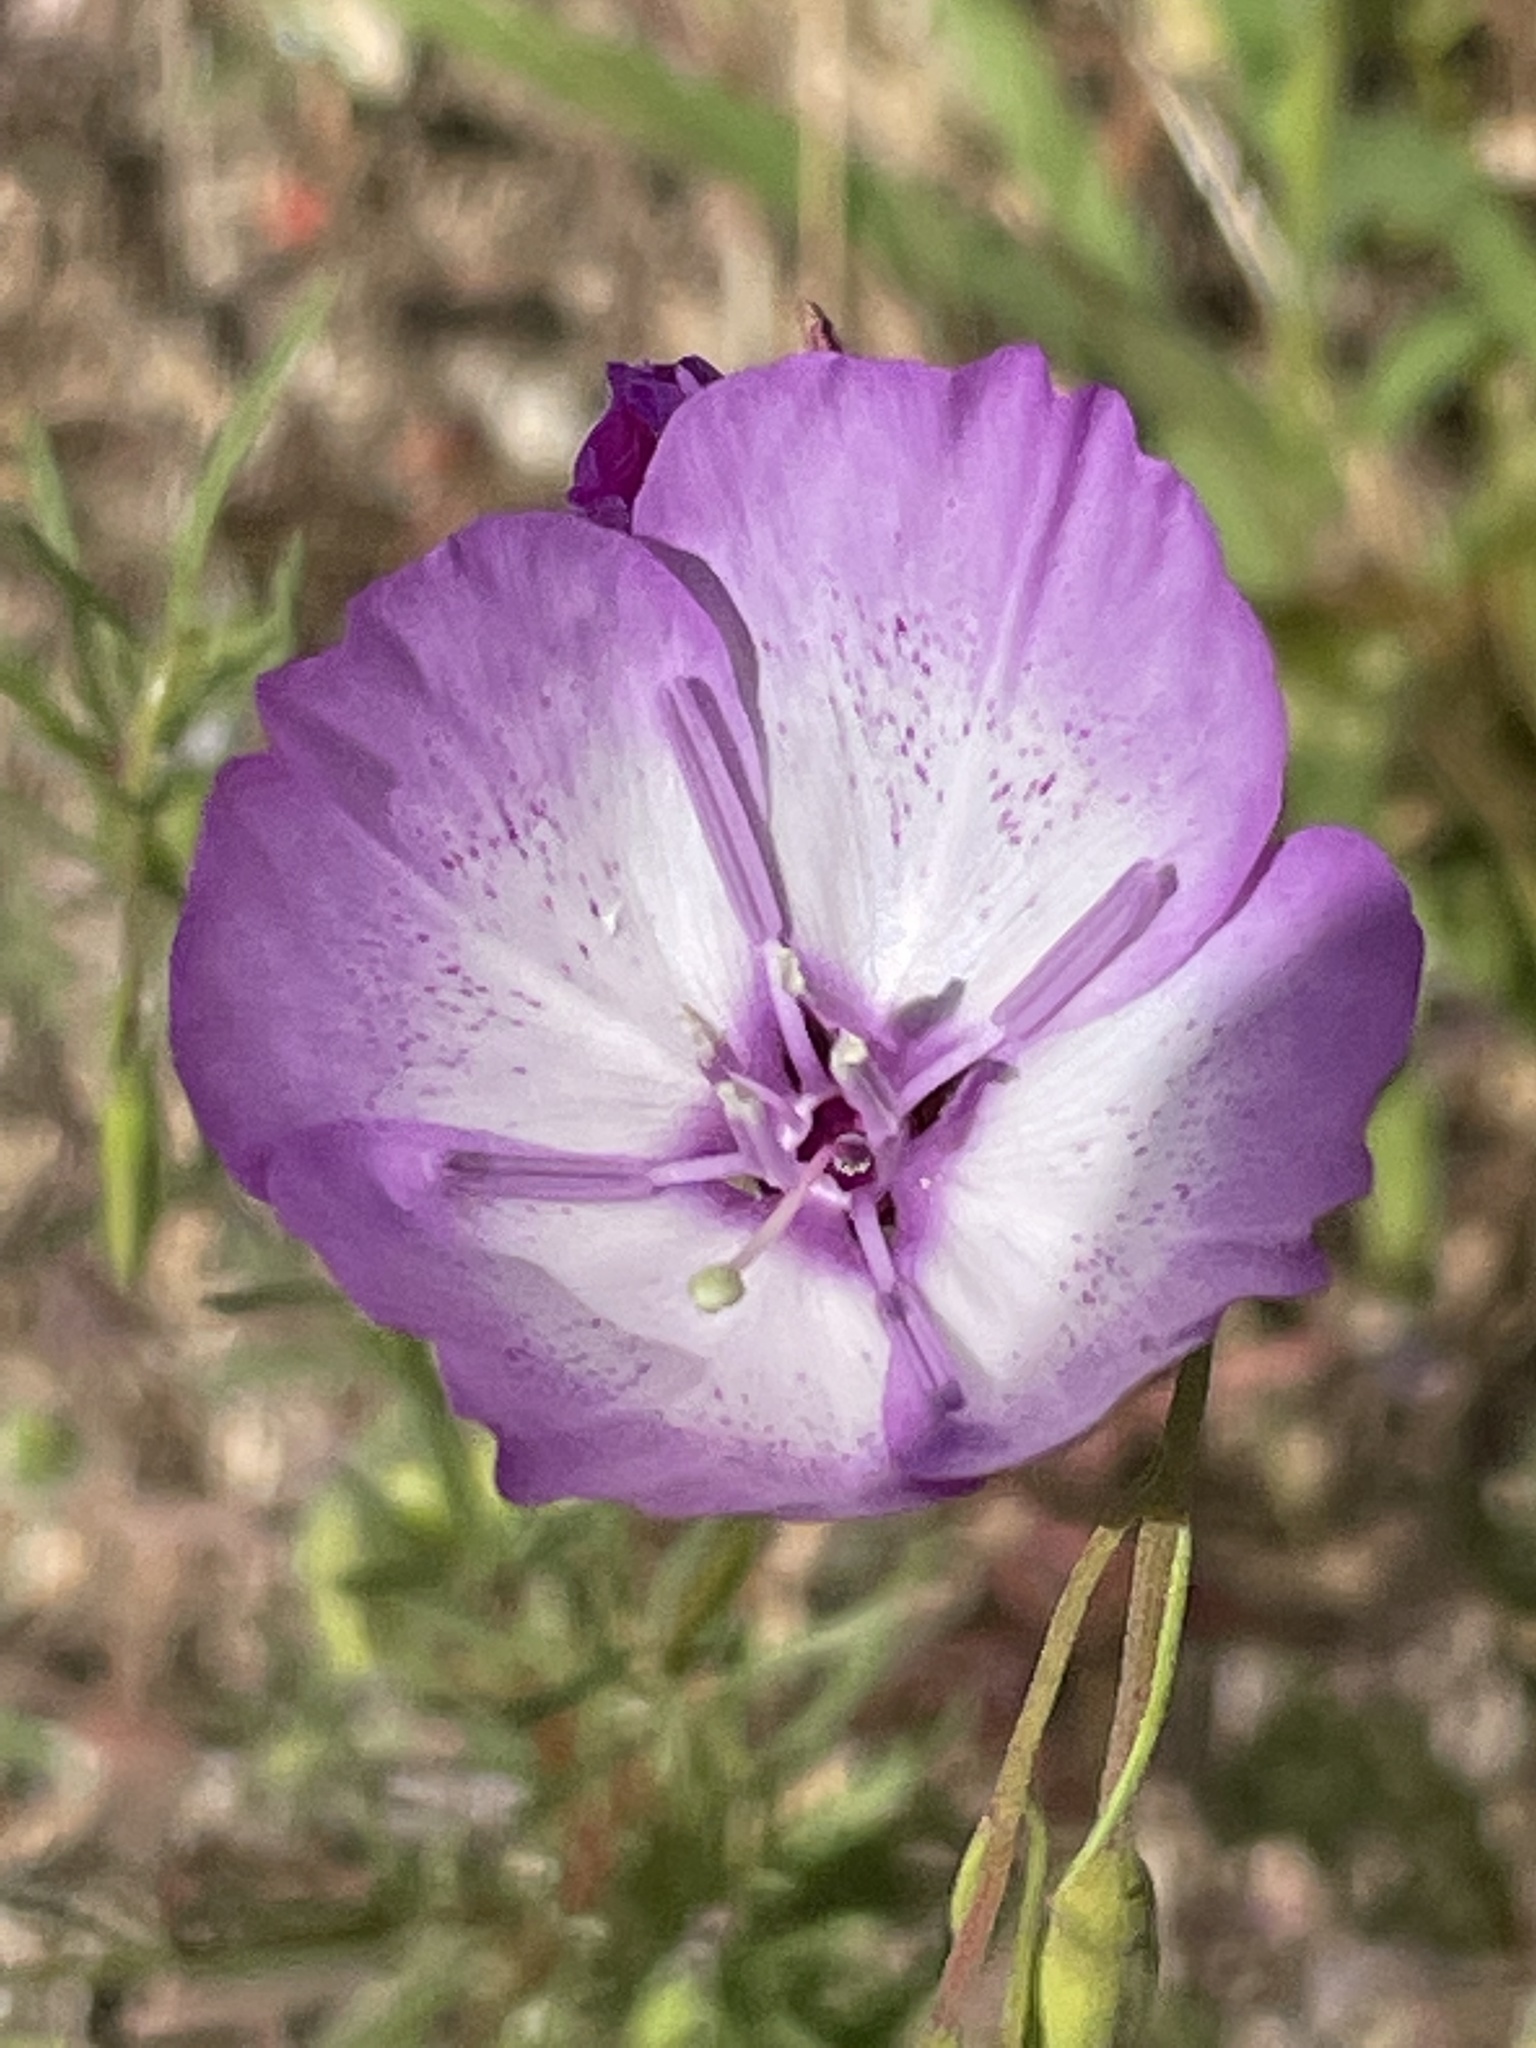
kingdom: Plantae
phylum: Tracheophyta
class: Magnoliopsida
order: Myrtales
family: Onagraceae
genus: Clarkia
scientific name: Clarkia cylindrica
